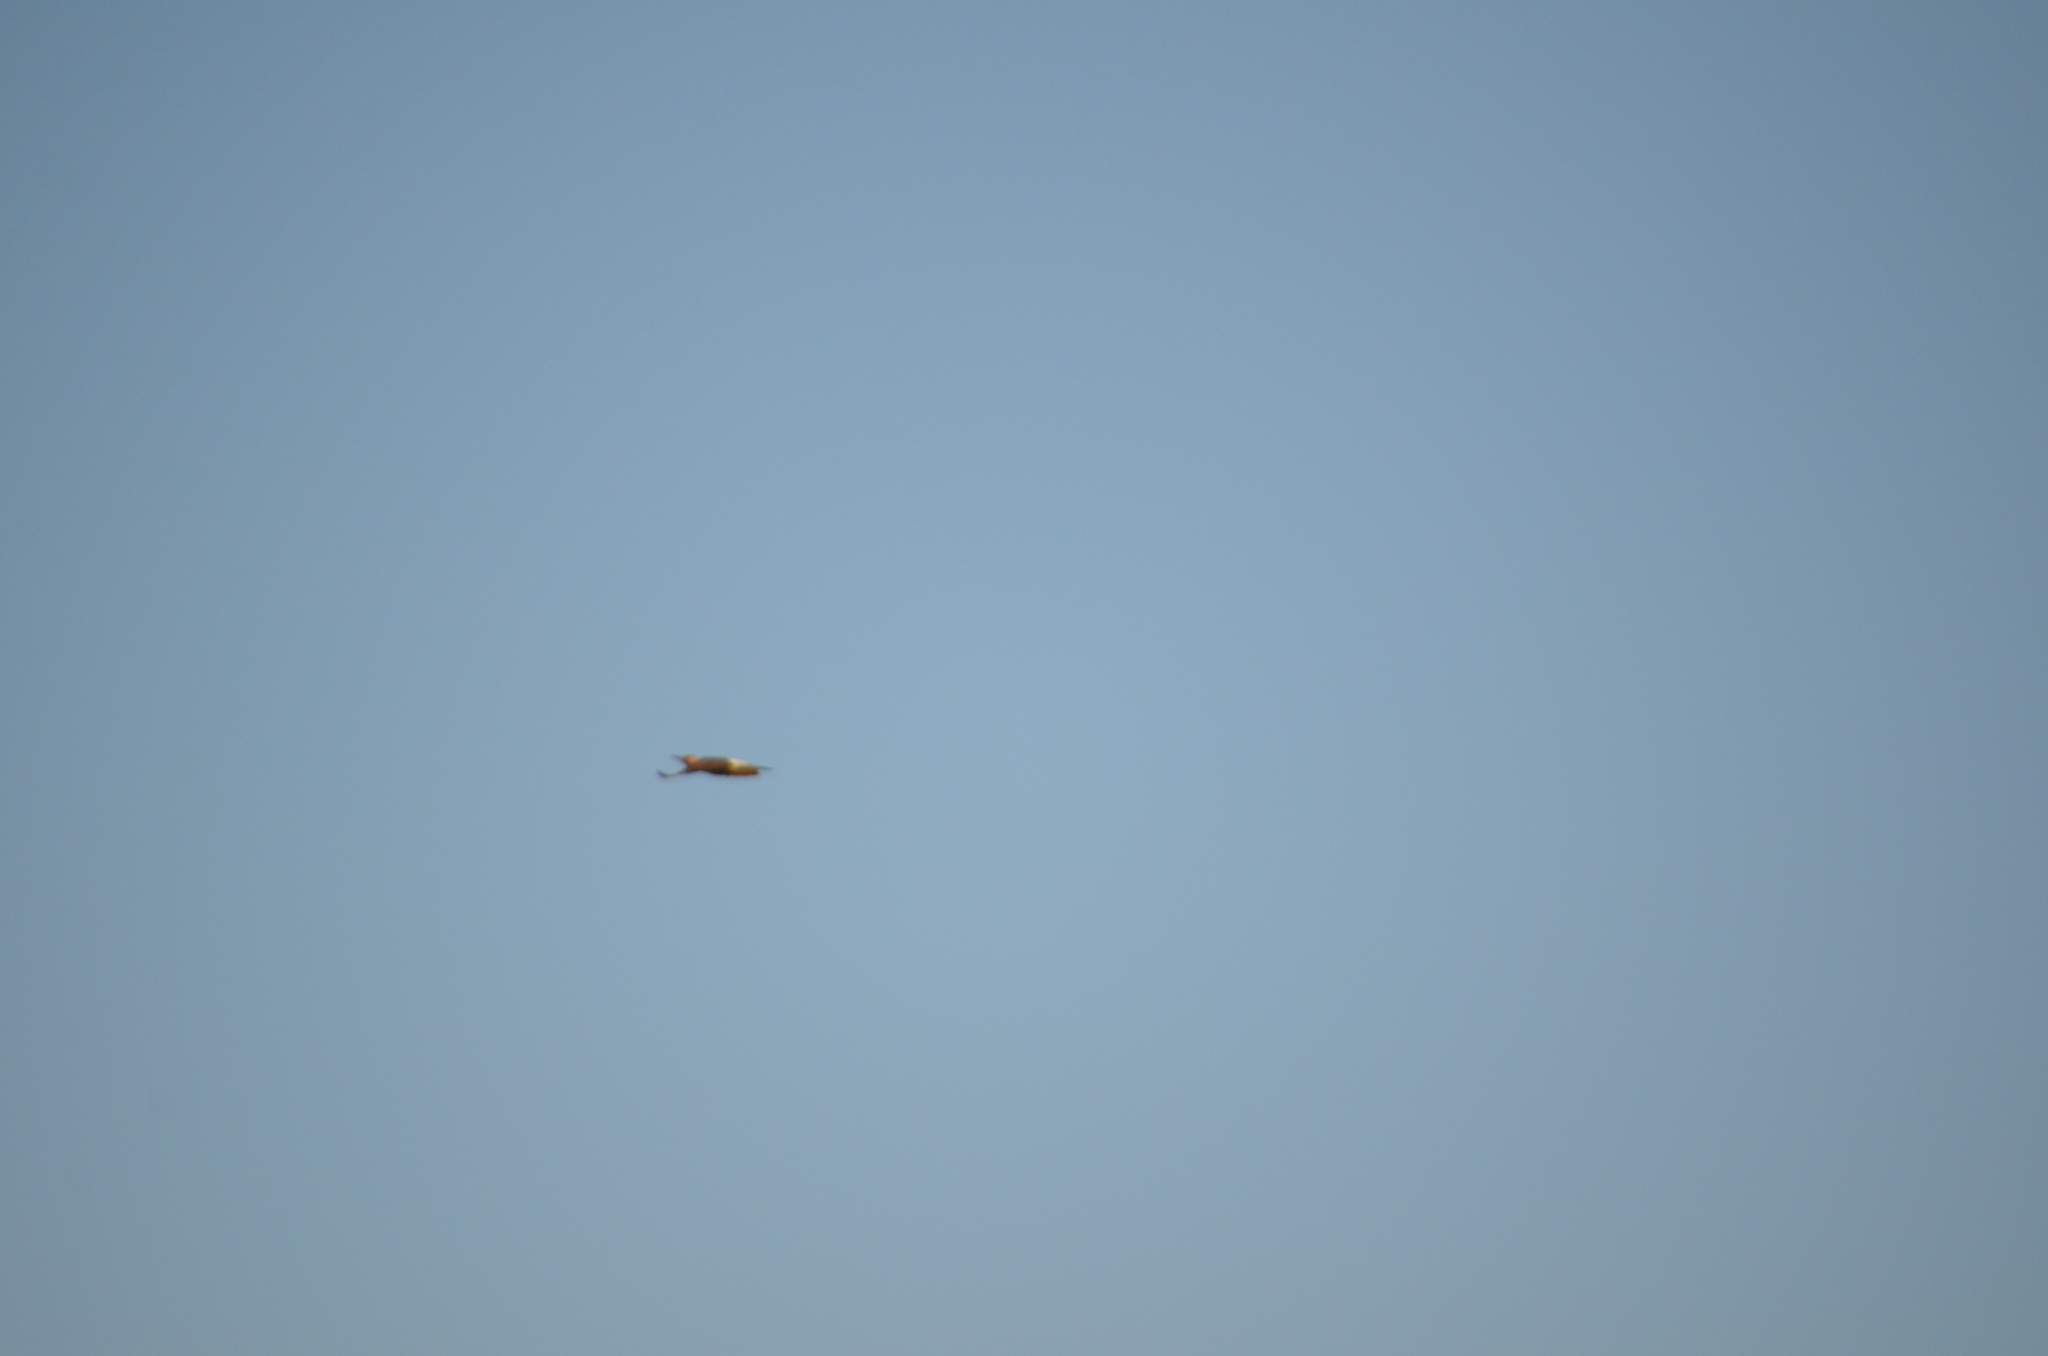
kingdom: Animalia
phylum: Chordata
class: Aves
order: Piciformes
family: Picidae
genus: Colaptes
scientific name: Colaptes auratus
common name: Northern flicker
